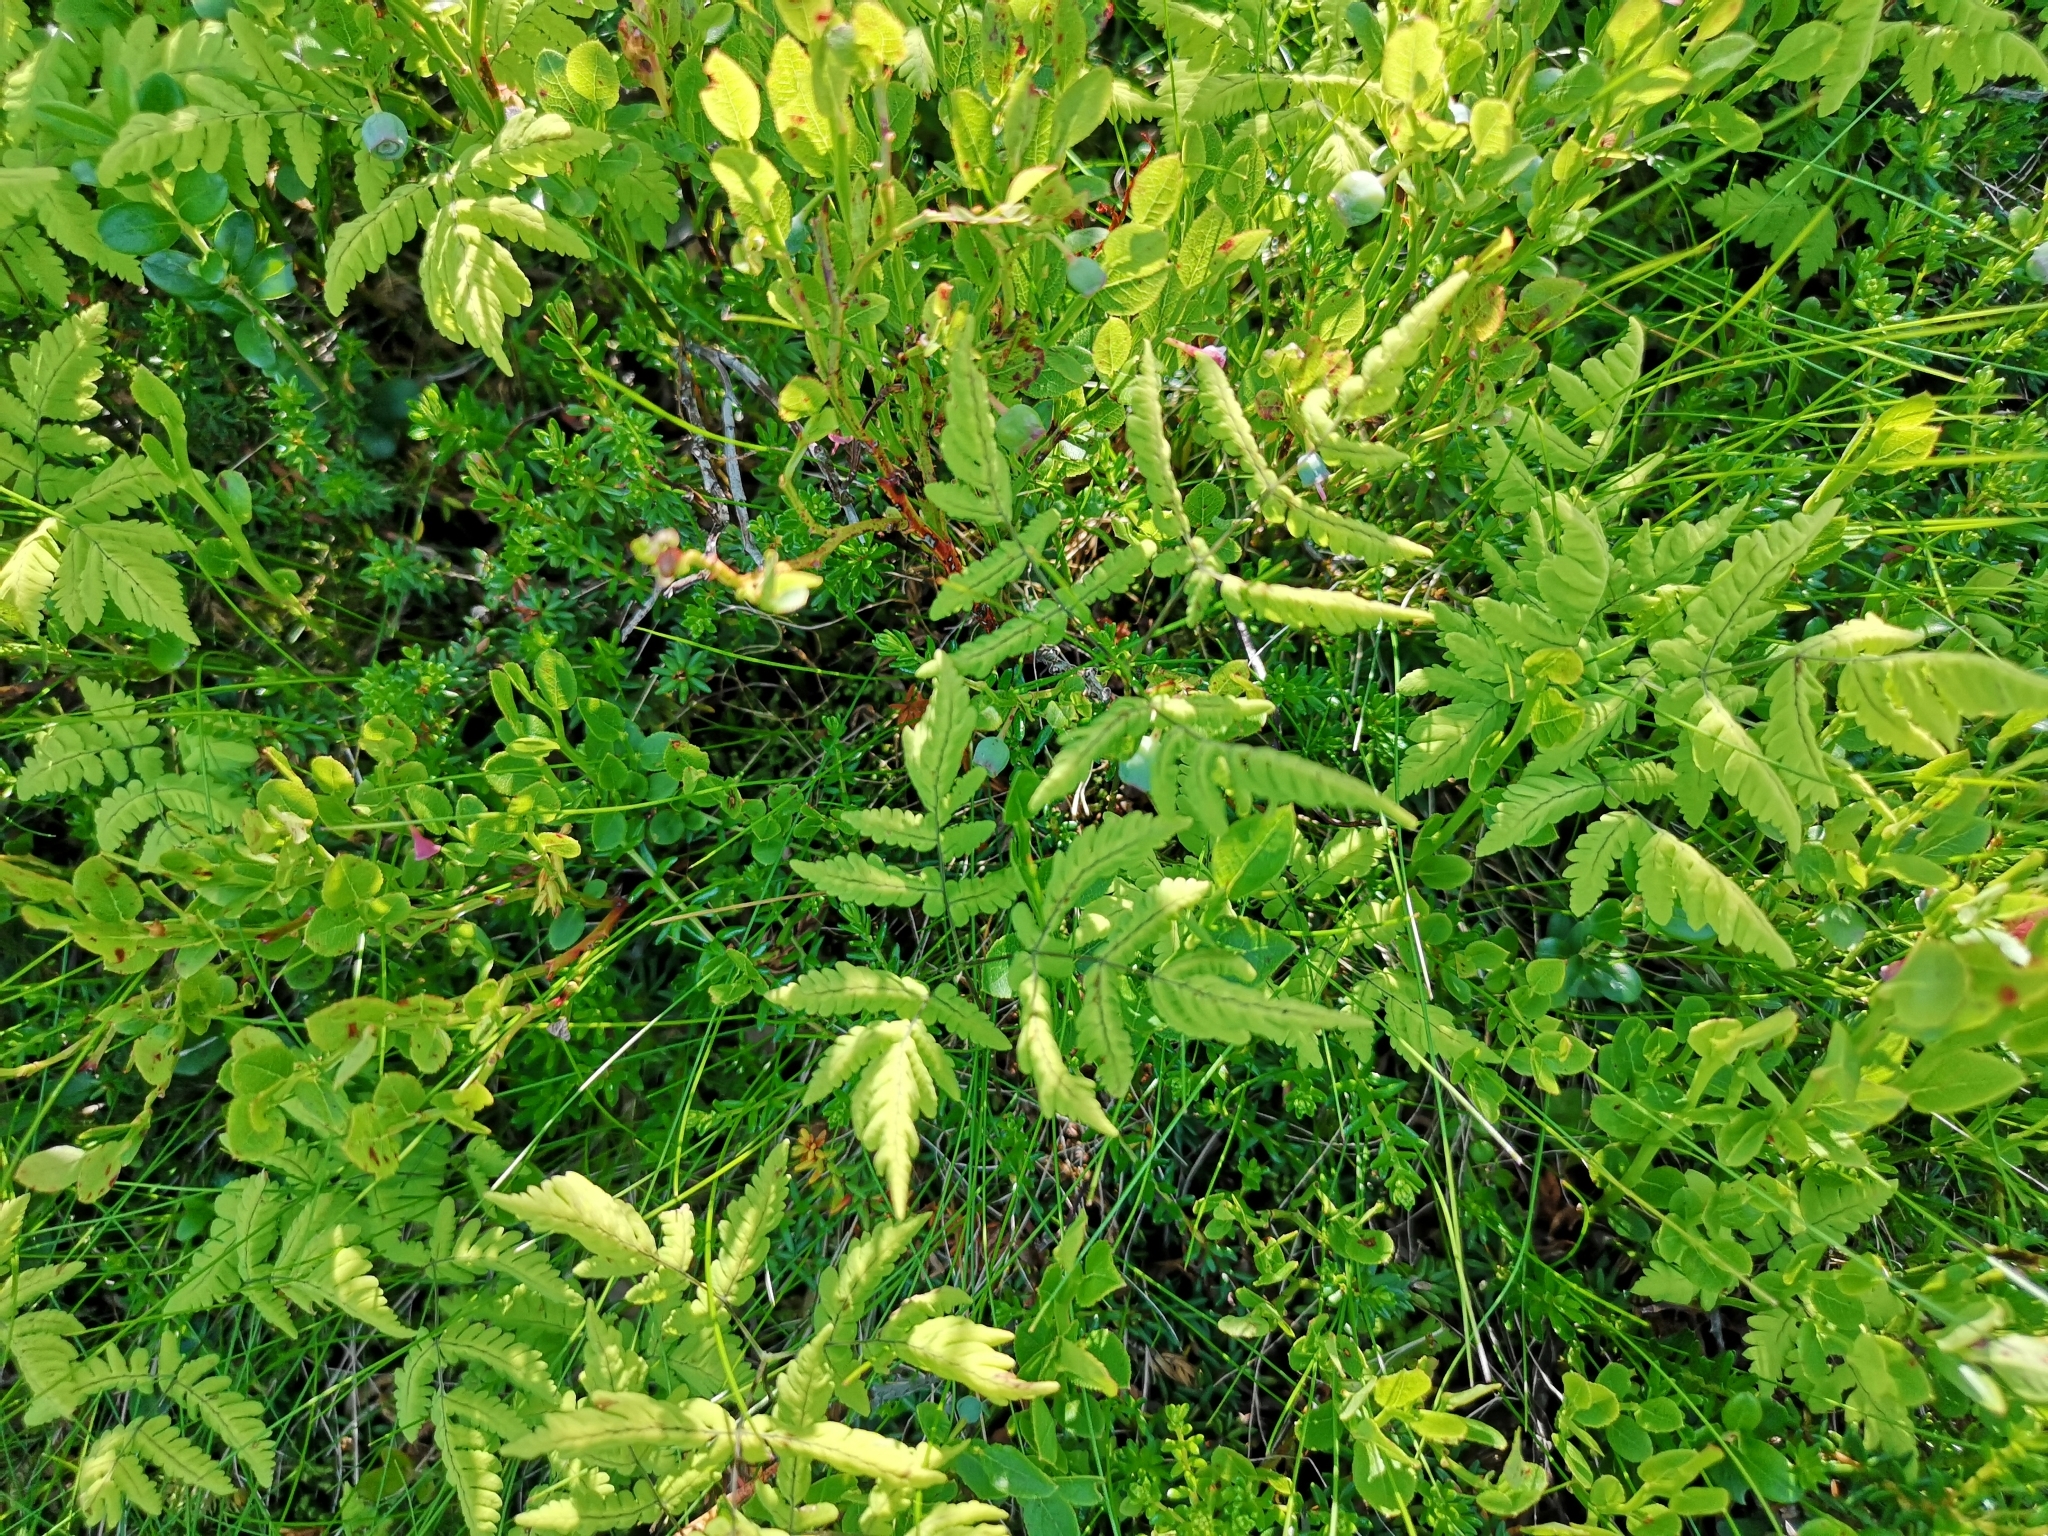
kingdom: Plantae
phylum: Tracheophyta
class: Polypodiopsida
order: Polypodiales
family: Cystopteridaceae
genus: Gymnocarpium
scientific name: Gymnocarpium dryopteris
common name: Oak fern
